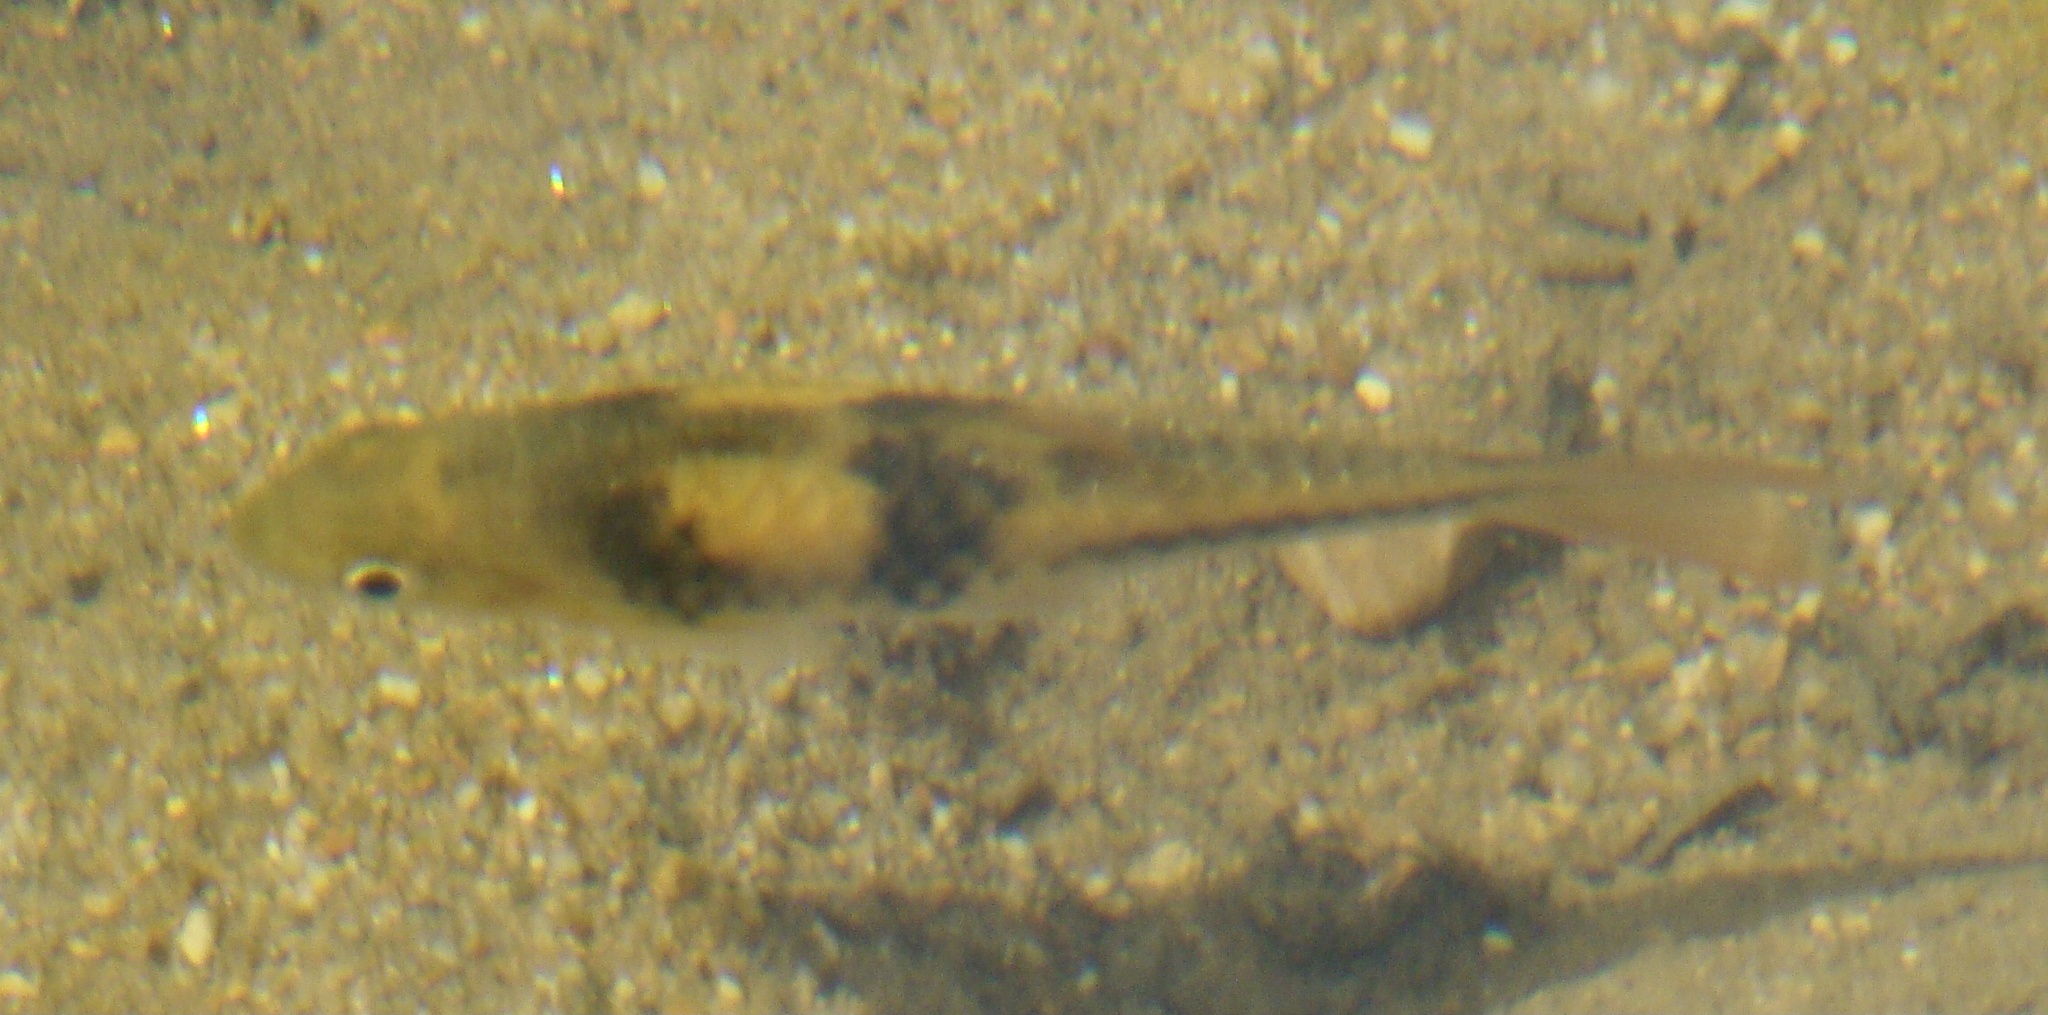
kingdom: Animalia
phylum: Chordata
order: Cypriniformes
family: Cyprinidae
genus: Barbodes
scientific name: Barbodes lateristriga
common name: Spanner barb
